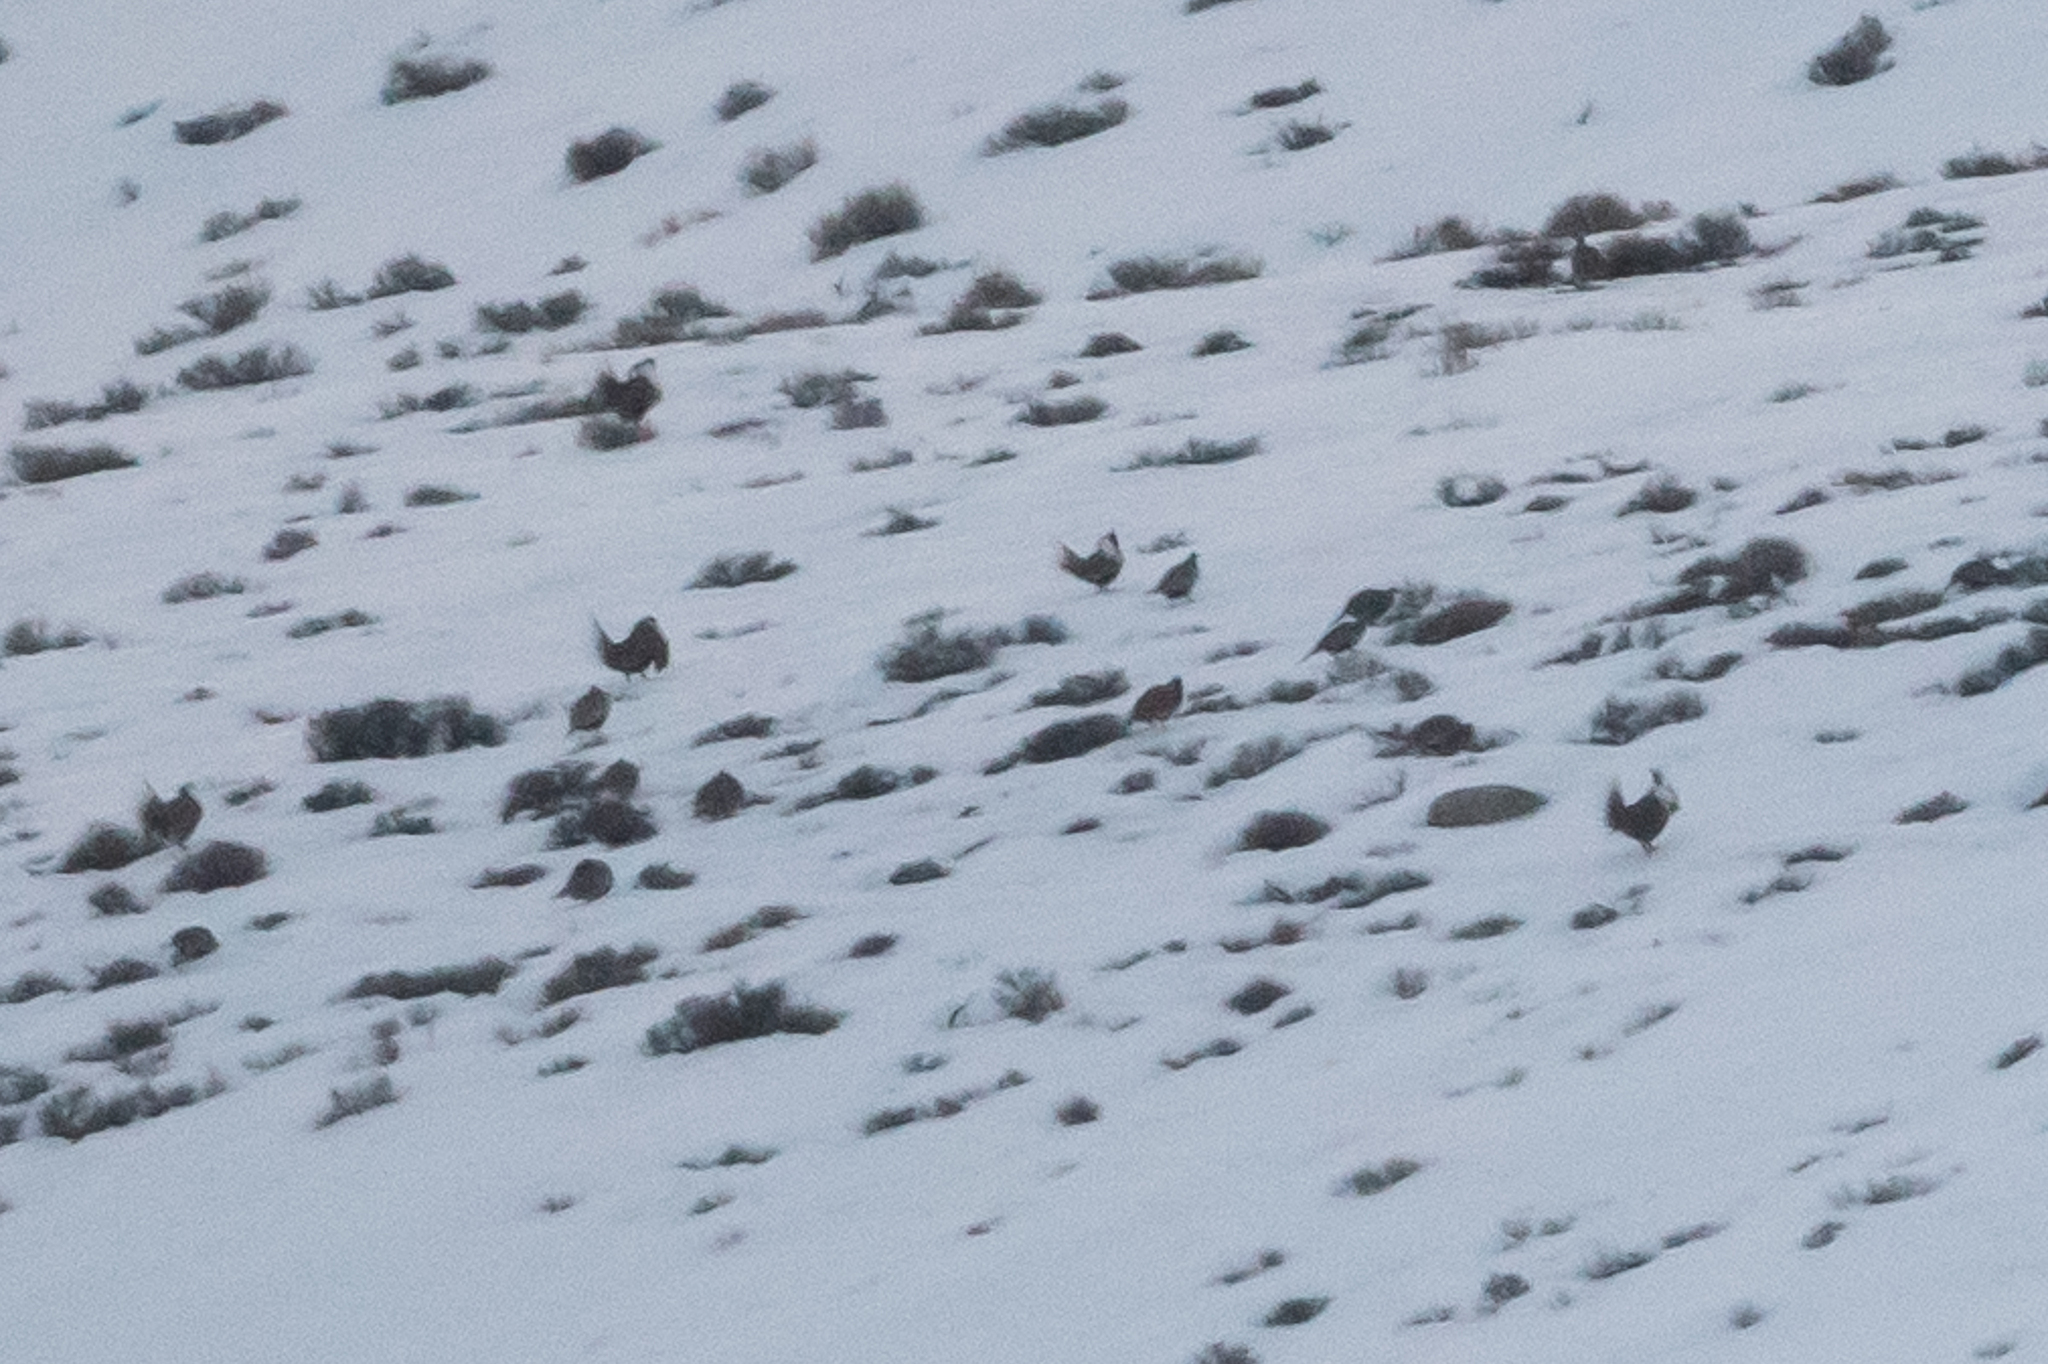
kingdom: Animalia
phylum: Chordata
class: Aves
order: Galliformes
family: Phasianidae
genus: Centrocercus
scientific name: Centrocercus minimus
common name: Gunnison grouse
